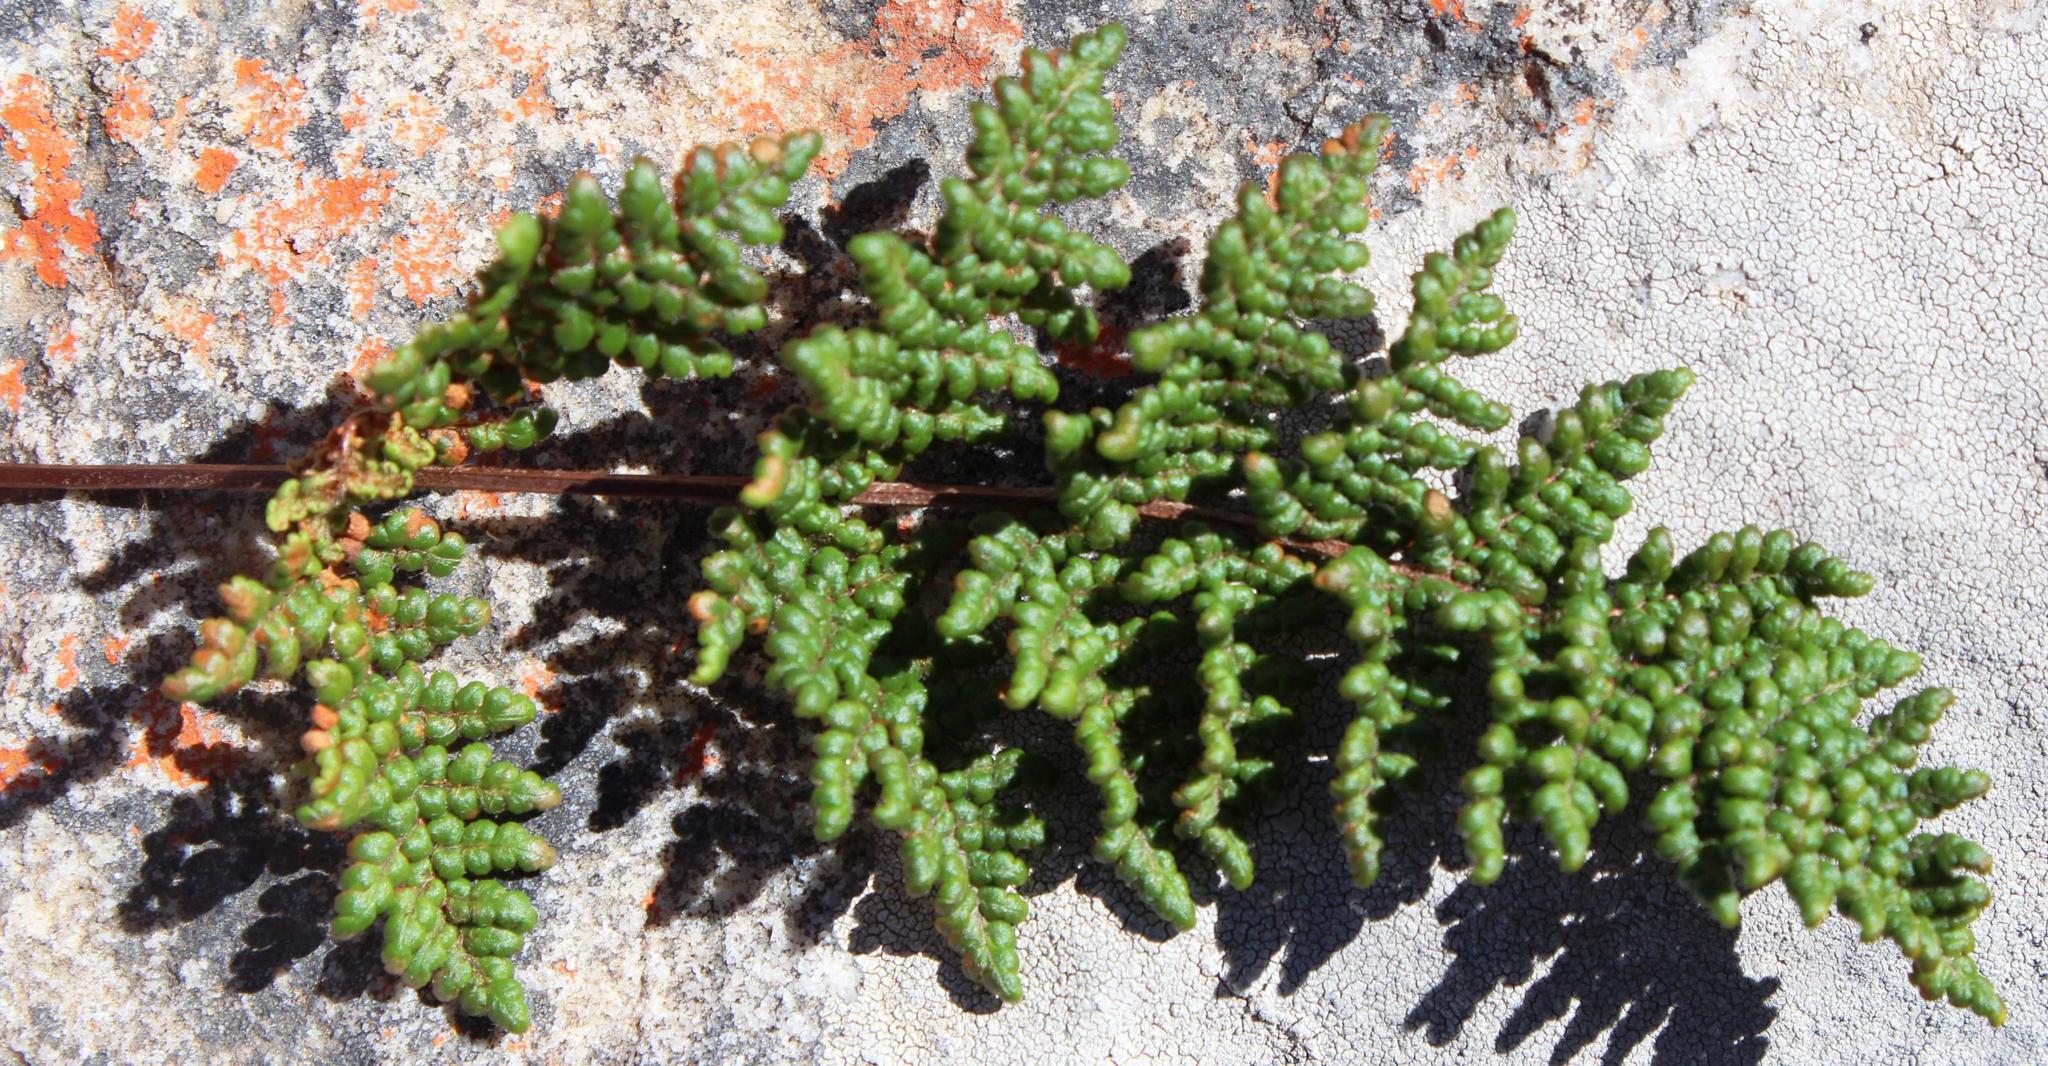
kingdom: Plantae
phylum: Tracheophyta
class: Polypodiopsida
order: Polypodiales
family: Pteridaceae
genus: Cheilanthes
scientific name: Cheilanthes induta
